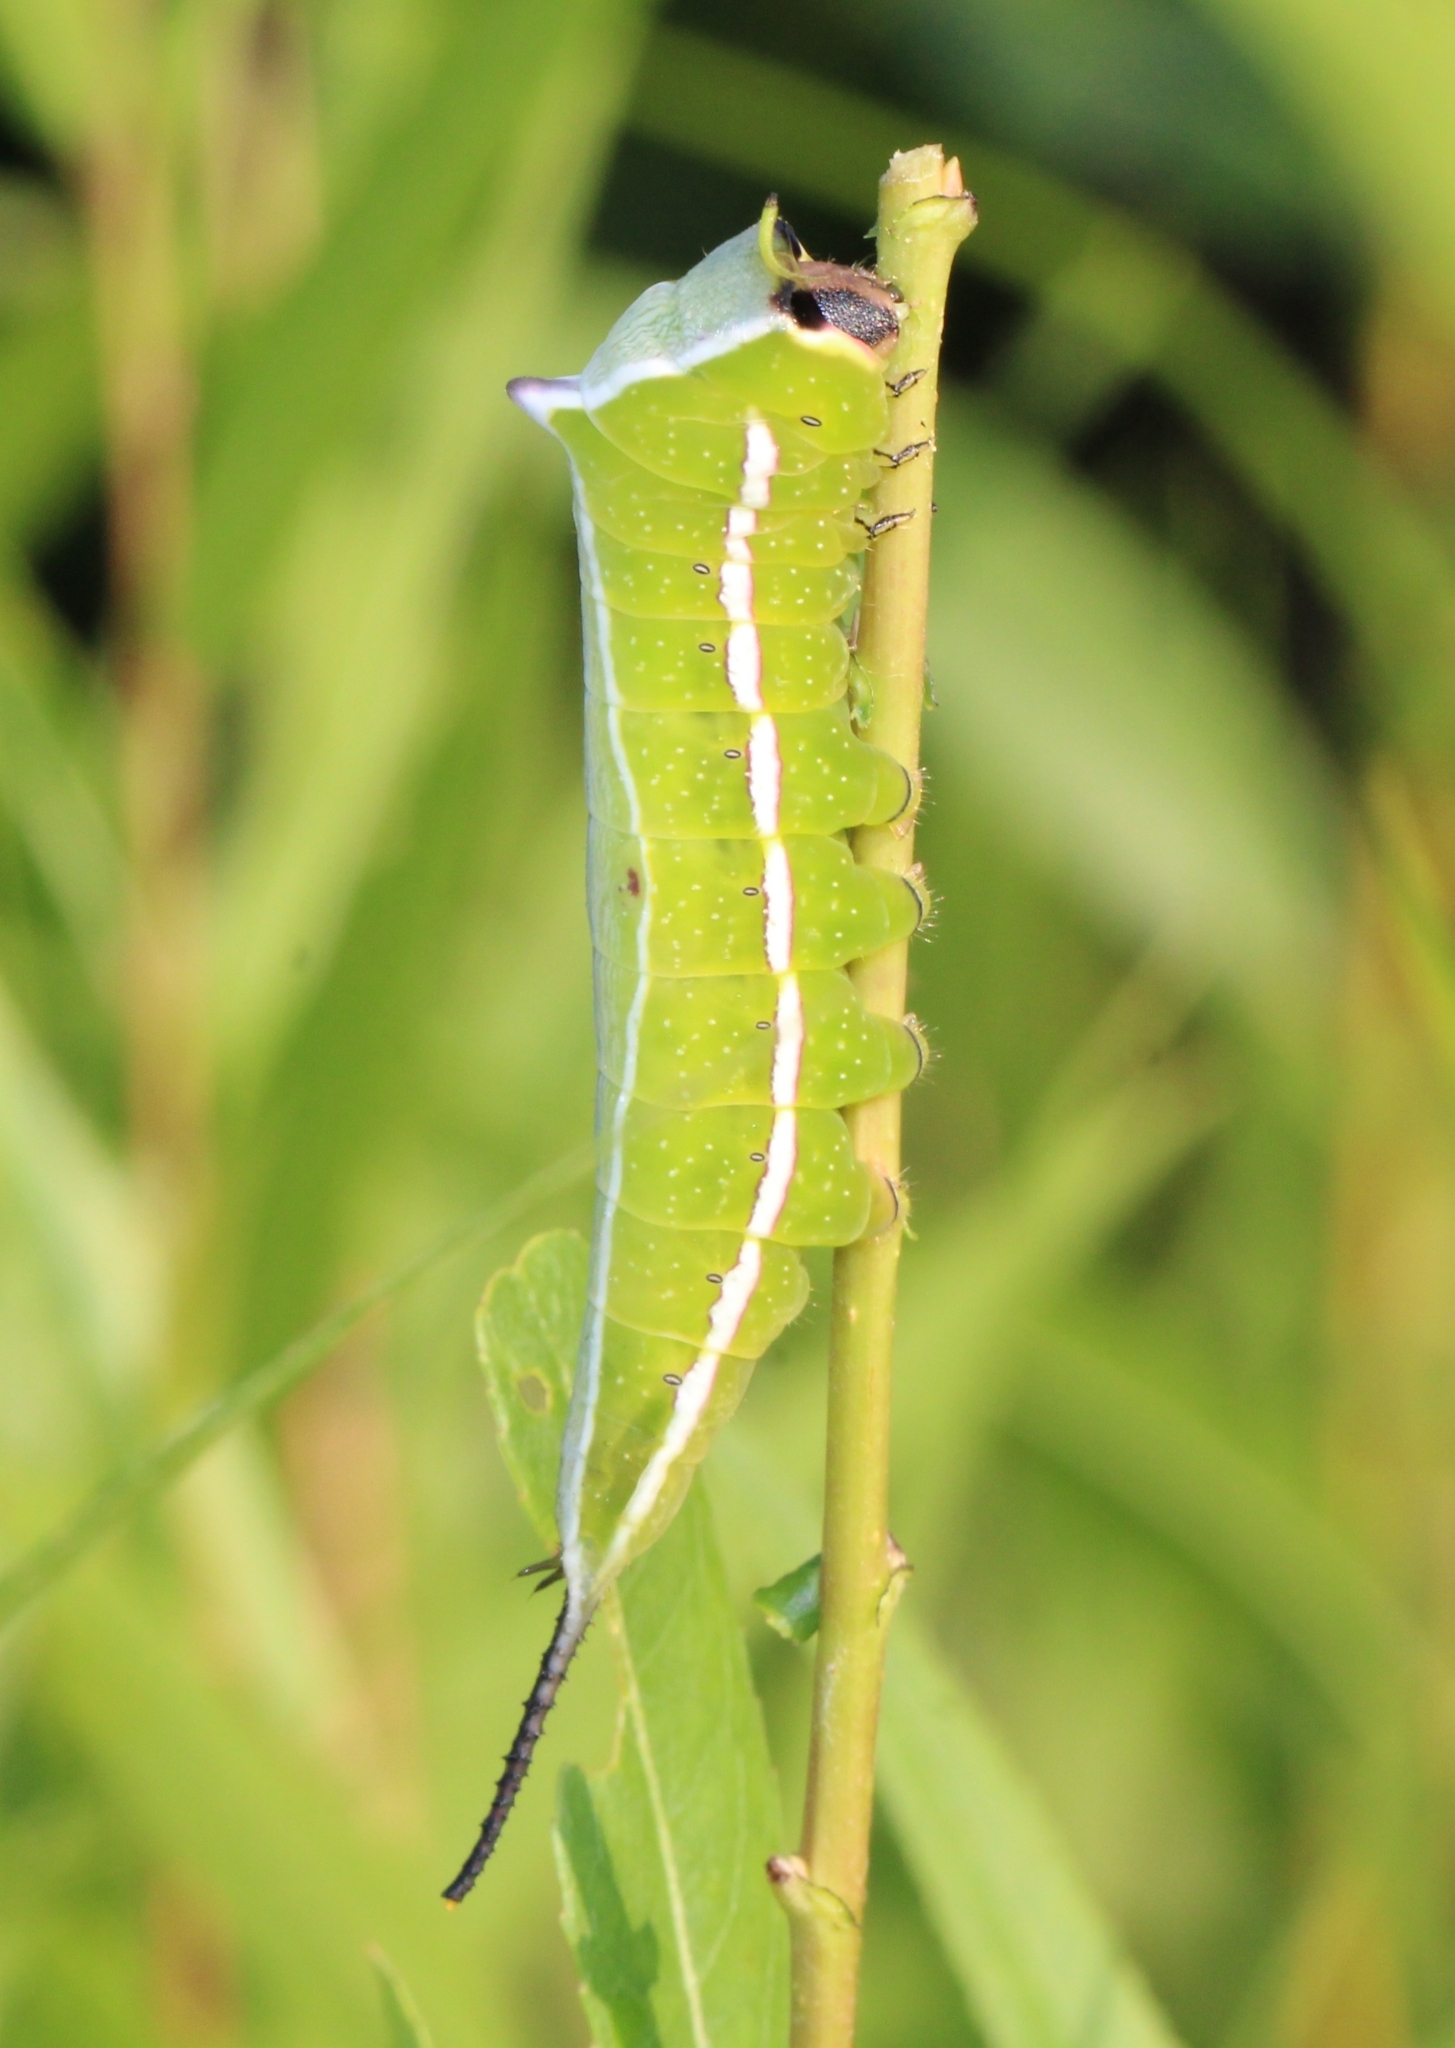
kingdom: Animalia
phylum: Arthropoda
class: Insecta
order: Lepidoptera
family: Notodontidae
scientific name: Notodontidae
